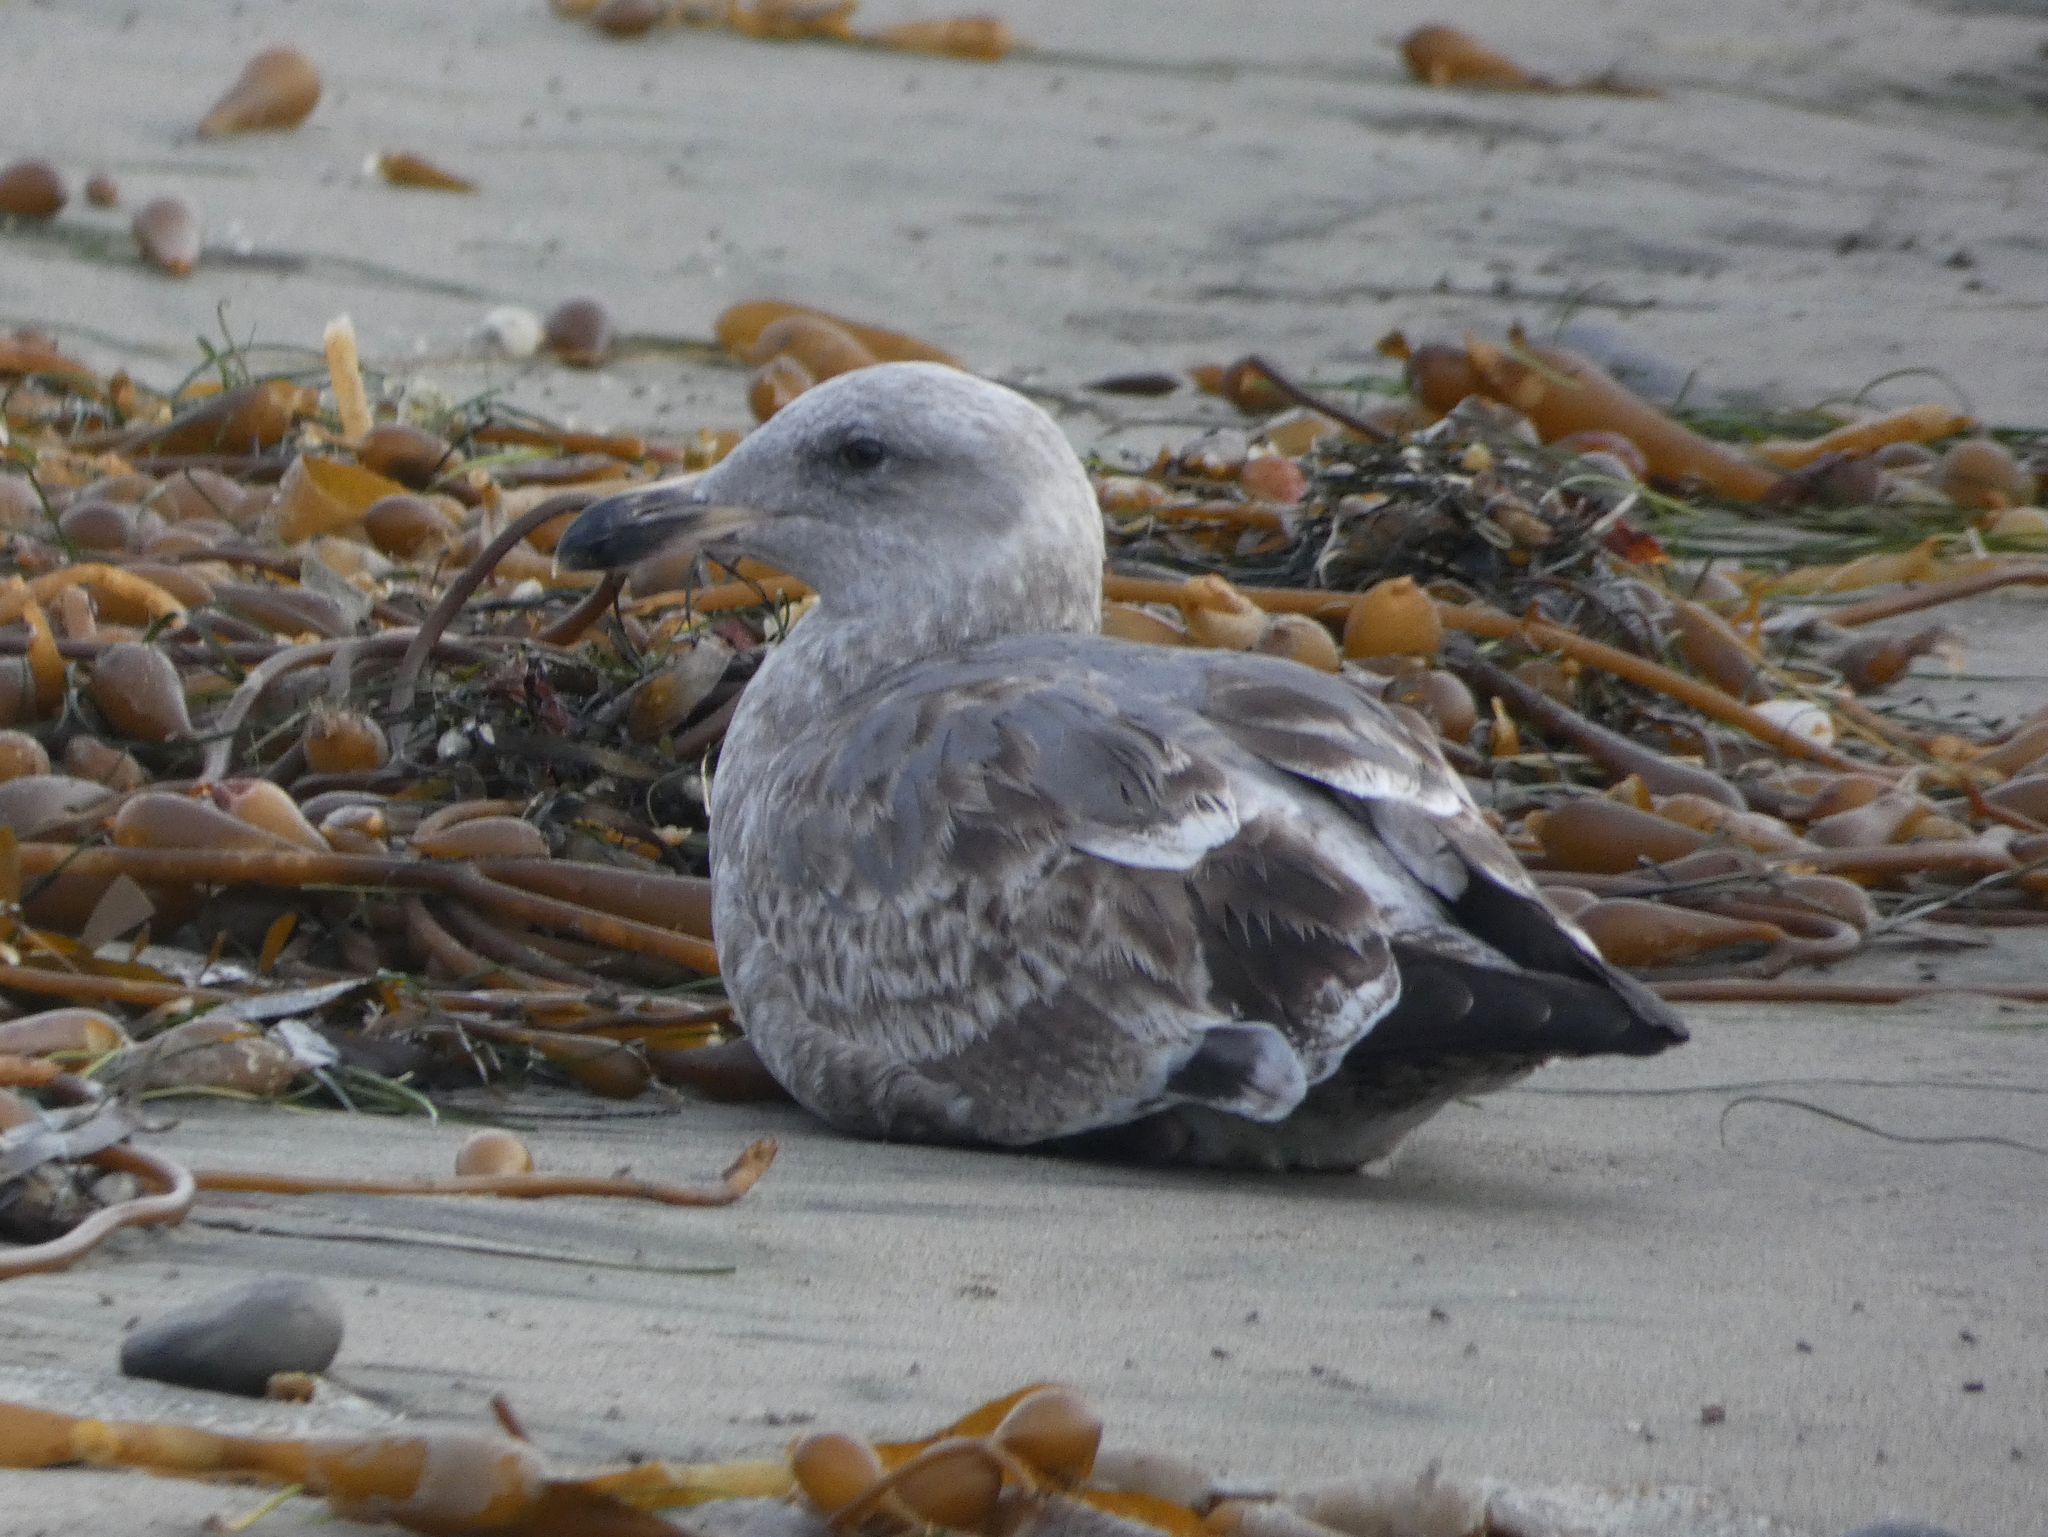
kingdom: Animalia
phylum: Chordata
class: Aves
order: Charadriiformes
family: Laridae
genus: Larus
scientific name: Larus
